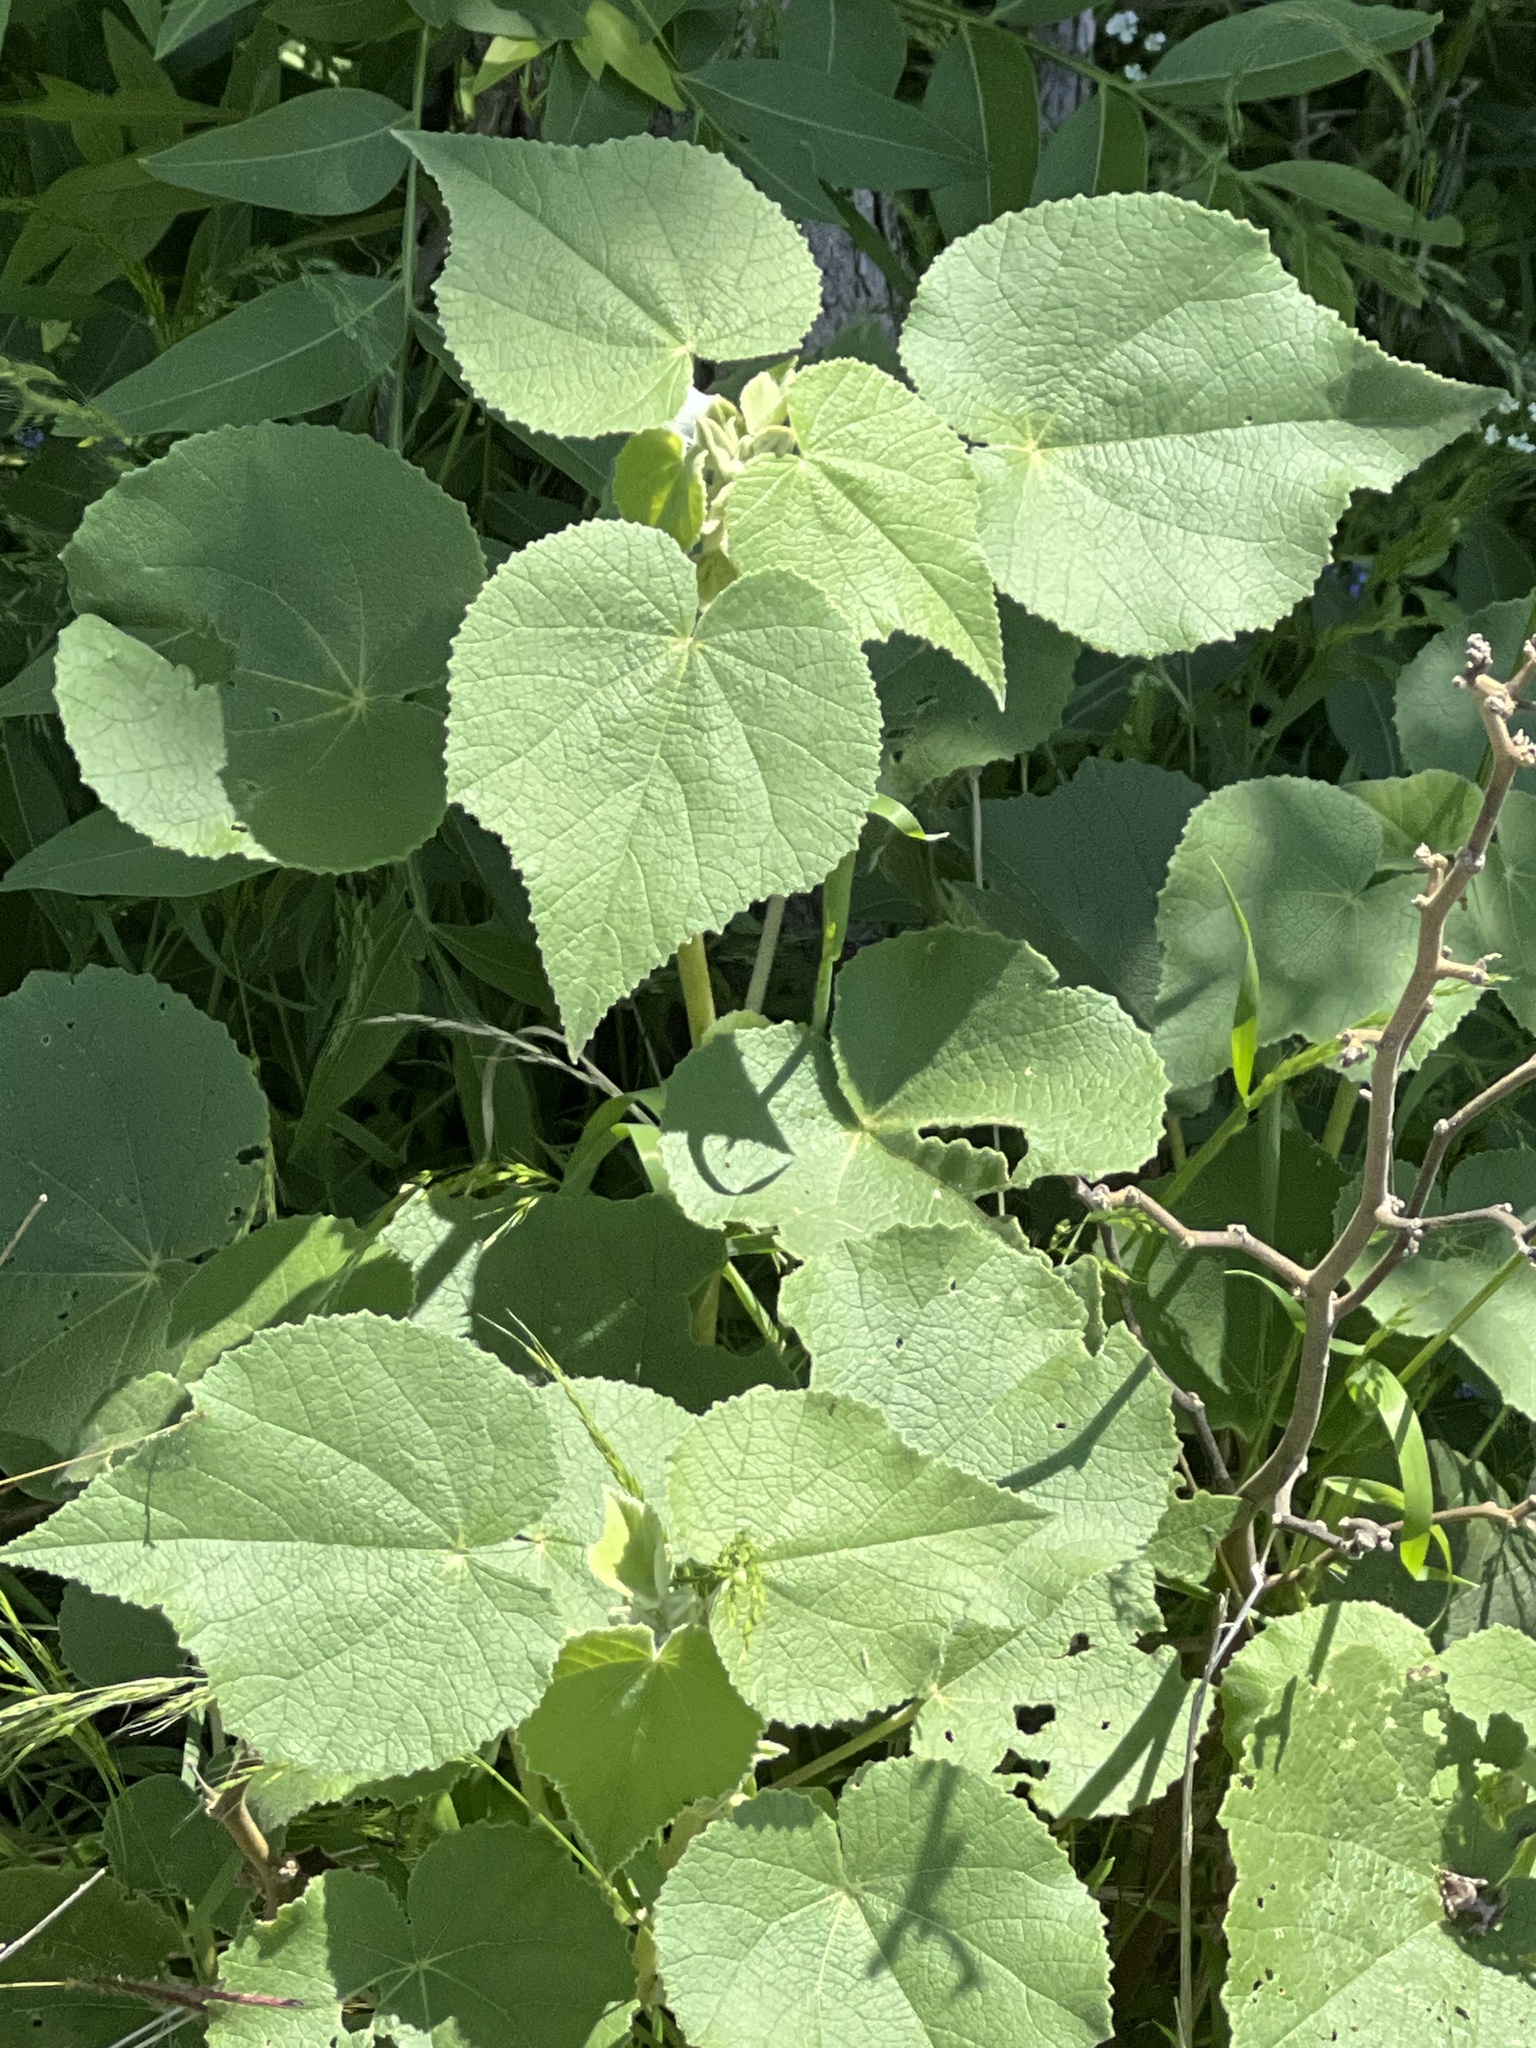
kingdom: Plantae
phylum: Tracheophyta
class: Magnoliopsida
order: Malvales
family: Malvaceae
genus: Allowissadula
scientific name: Allowissadula holosericea
